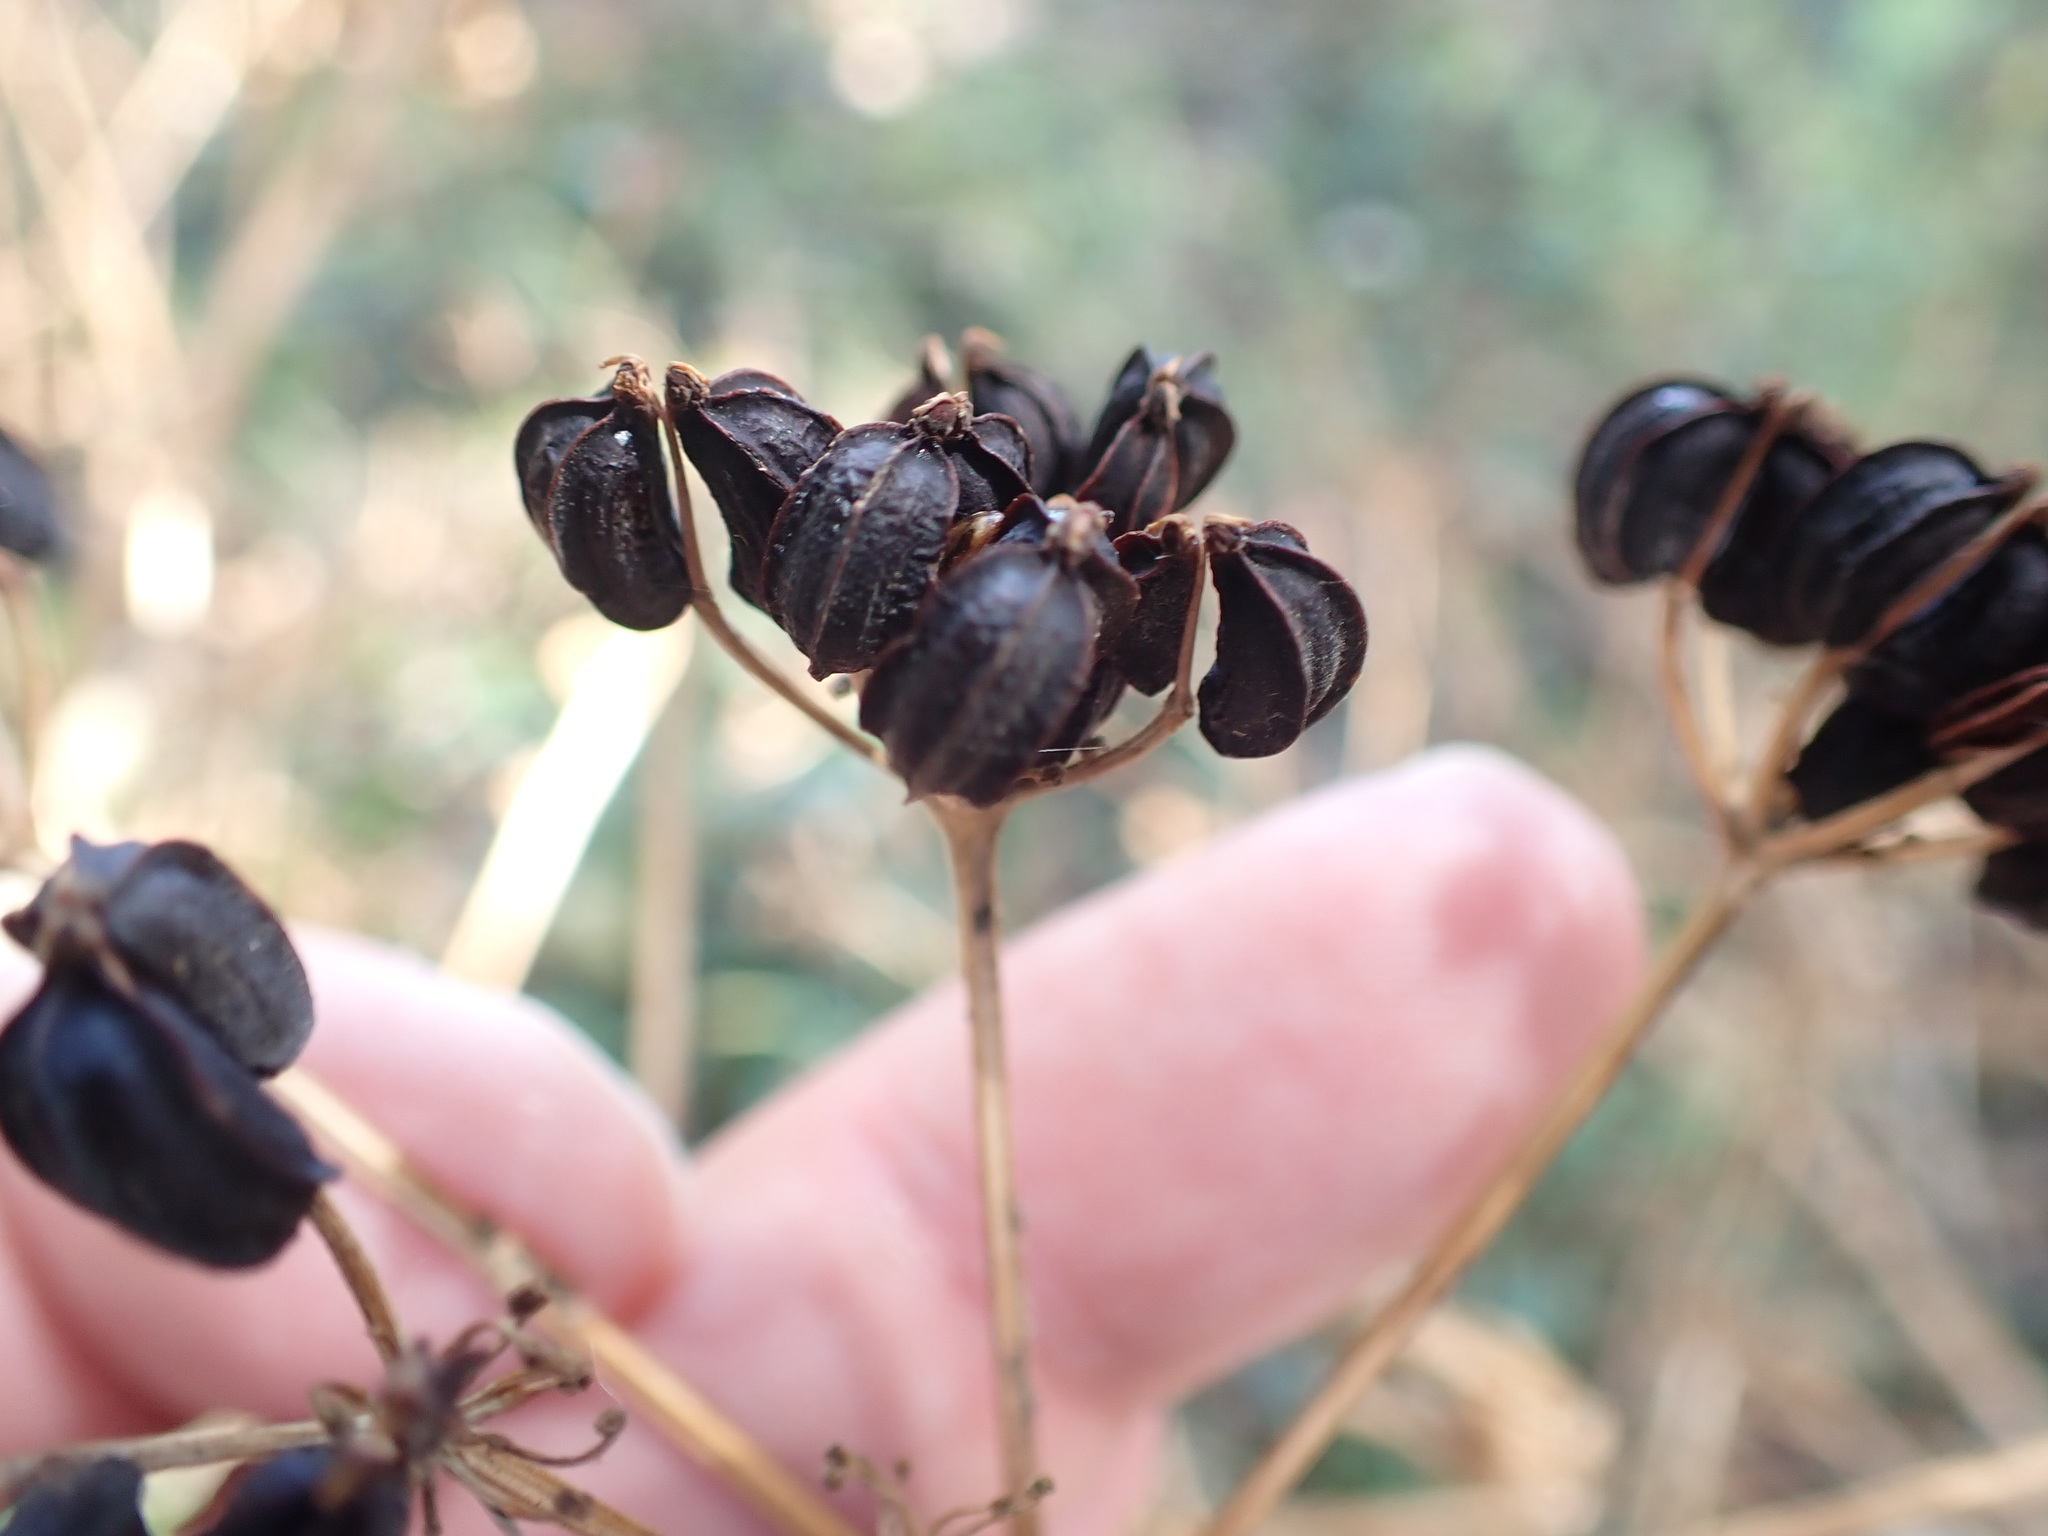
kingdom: Plantae
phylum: Tracheophyta
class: Magnoliopsida
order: Apiales
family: Apiaceae
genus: Smyrnium
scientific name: Smyrnium olusatrum
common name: Alexanders
